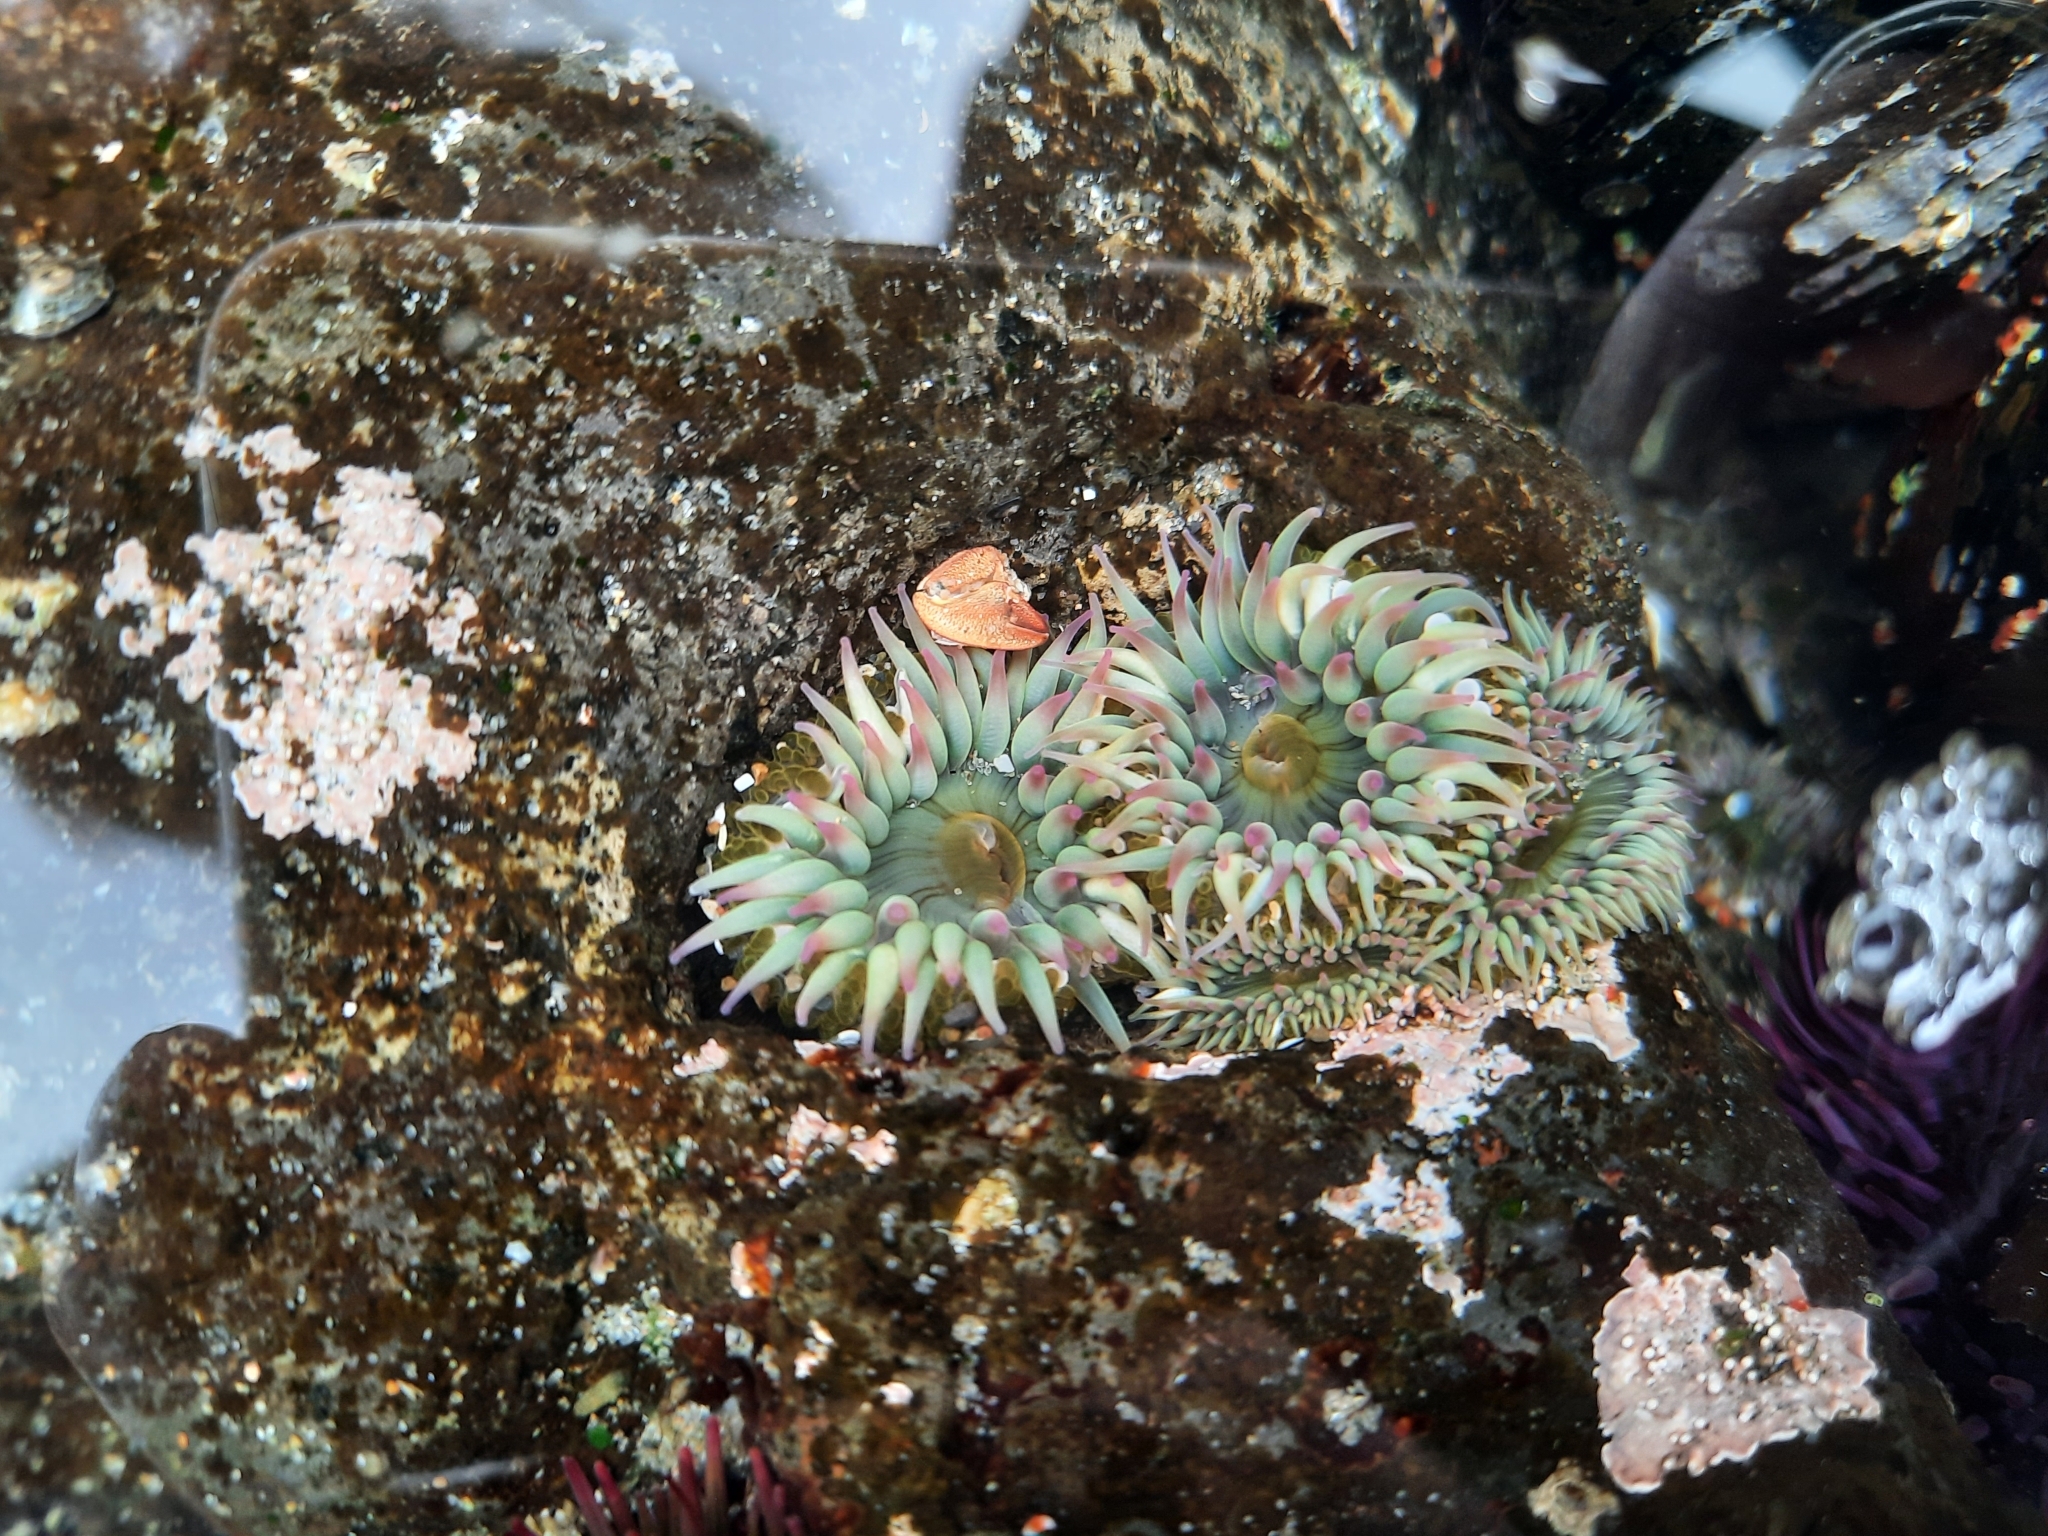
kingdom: Animalia
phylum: Cnidaria
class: Anthozoa
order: Actiniaria
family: Actiniidae
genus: Anthopleura
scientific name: Anthopleura elegantissima
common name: Clonal anemone
